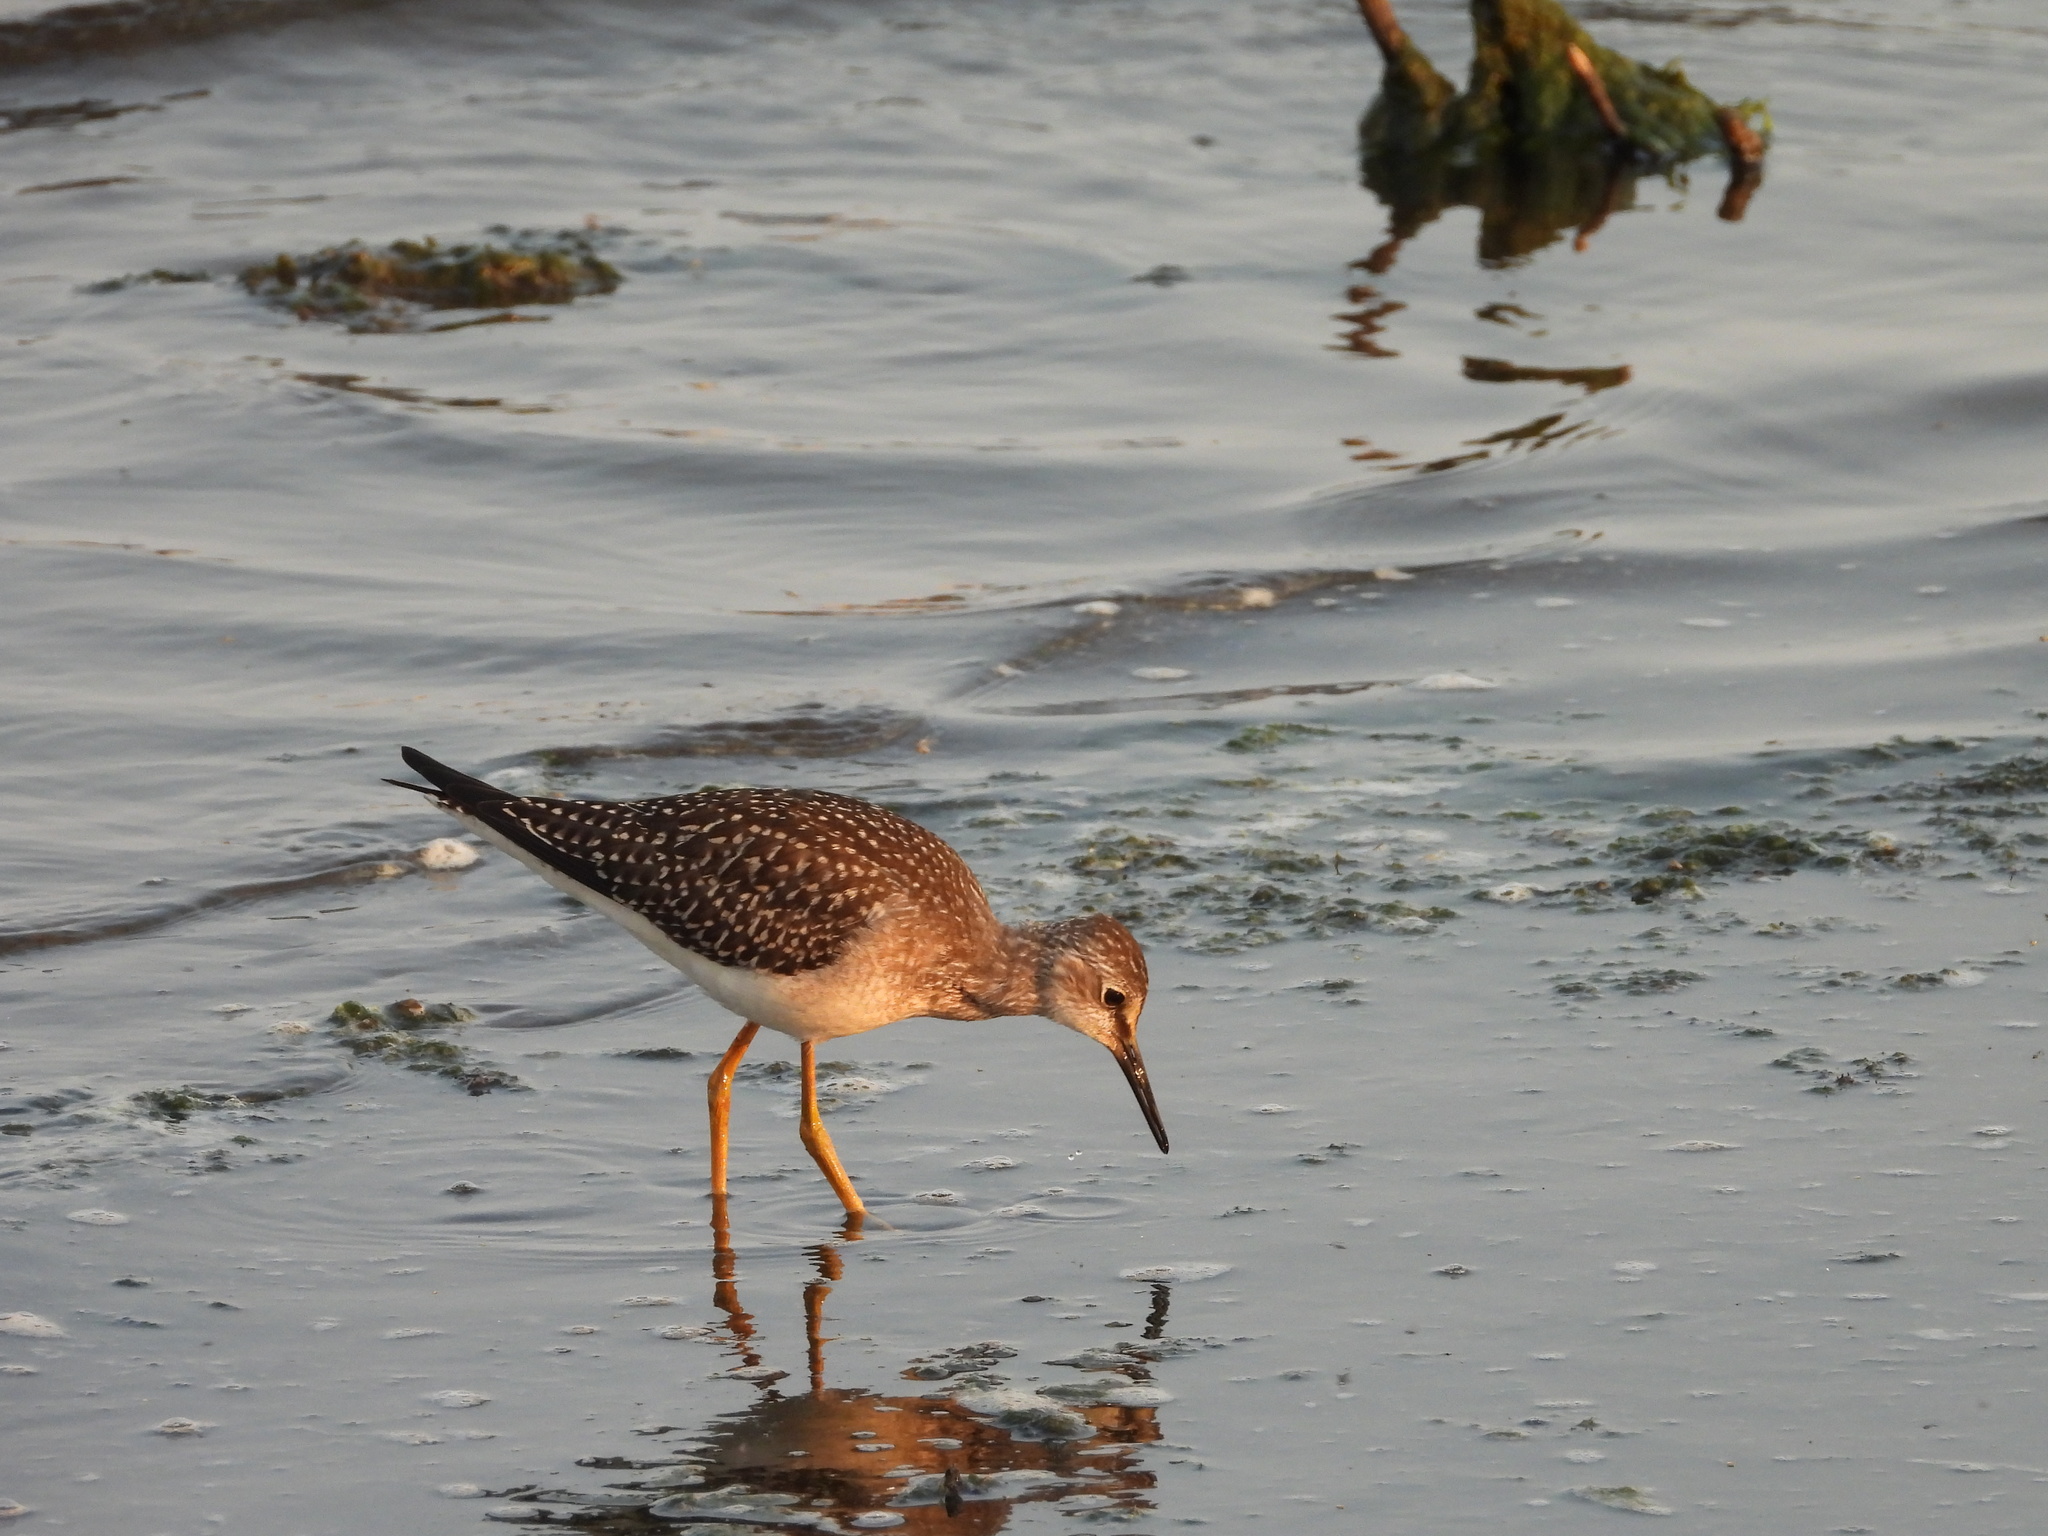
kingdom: Animalia
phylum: Chordata
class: Aves
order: Charadriiformes
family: Scolopacidae
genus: Tringa
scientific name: Tringa flavipes
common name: Lesser yellowlegs
